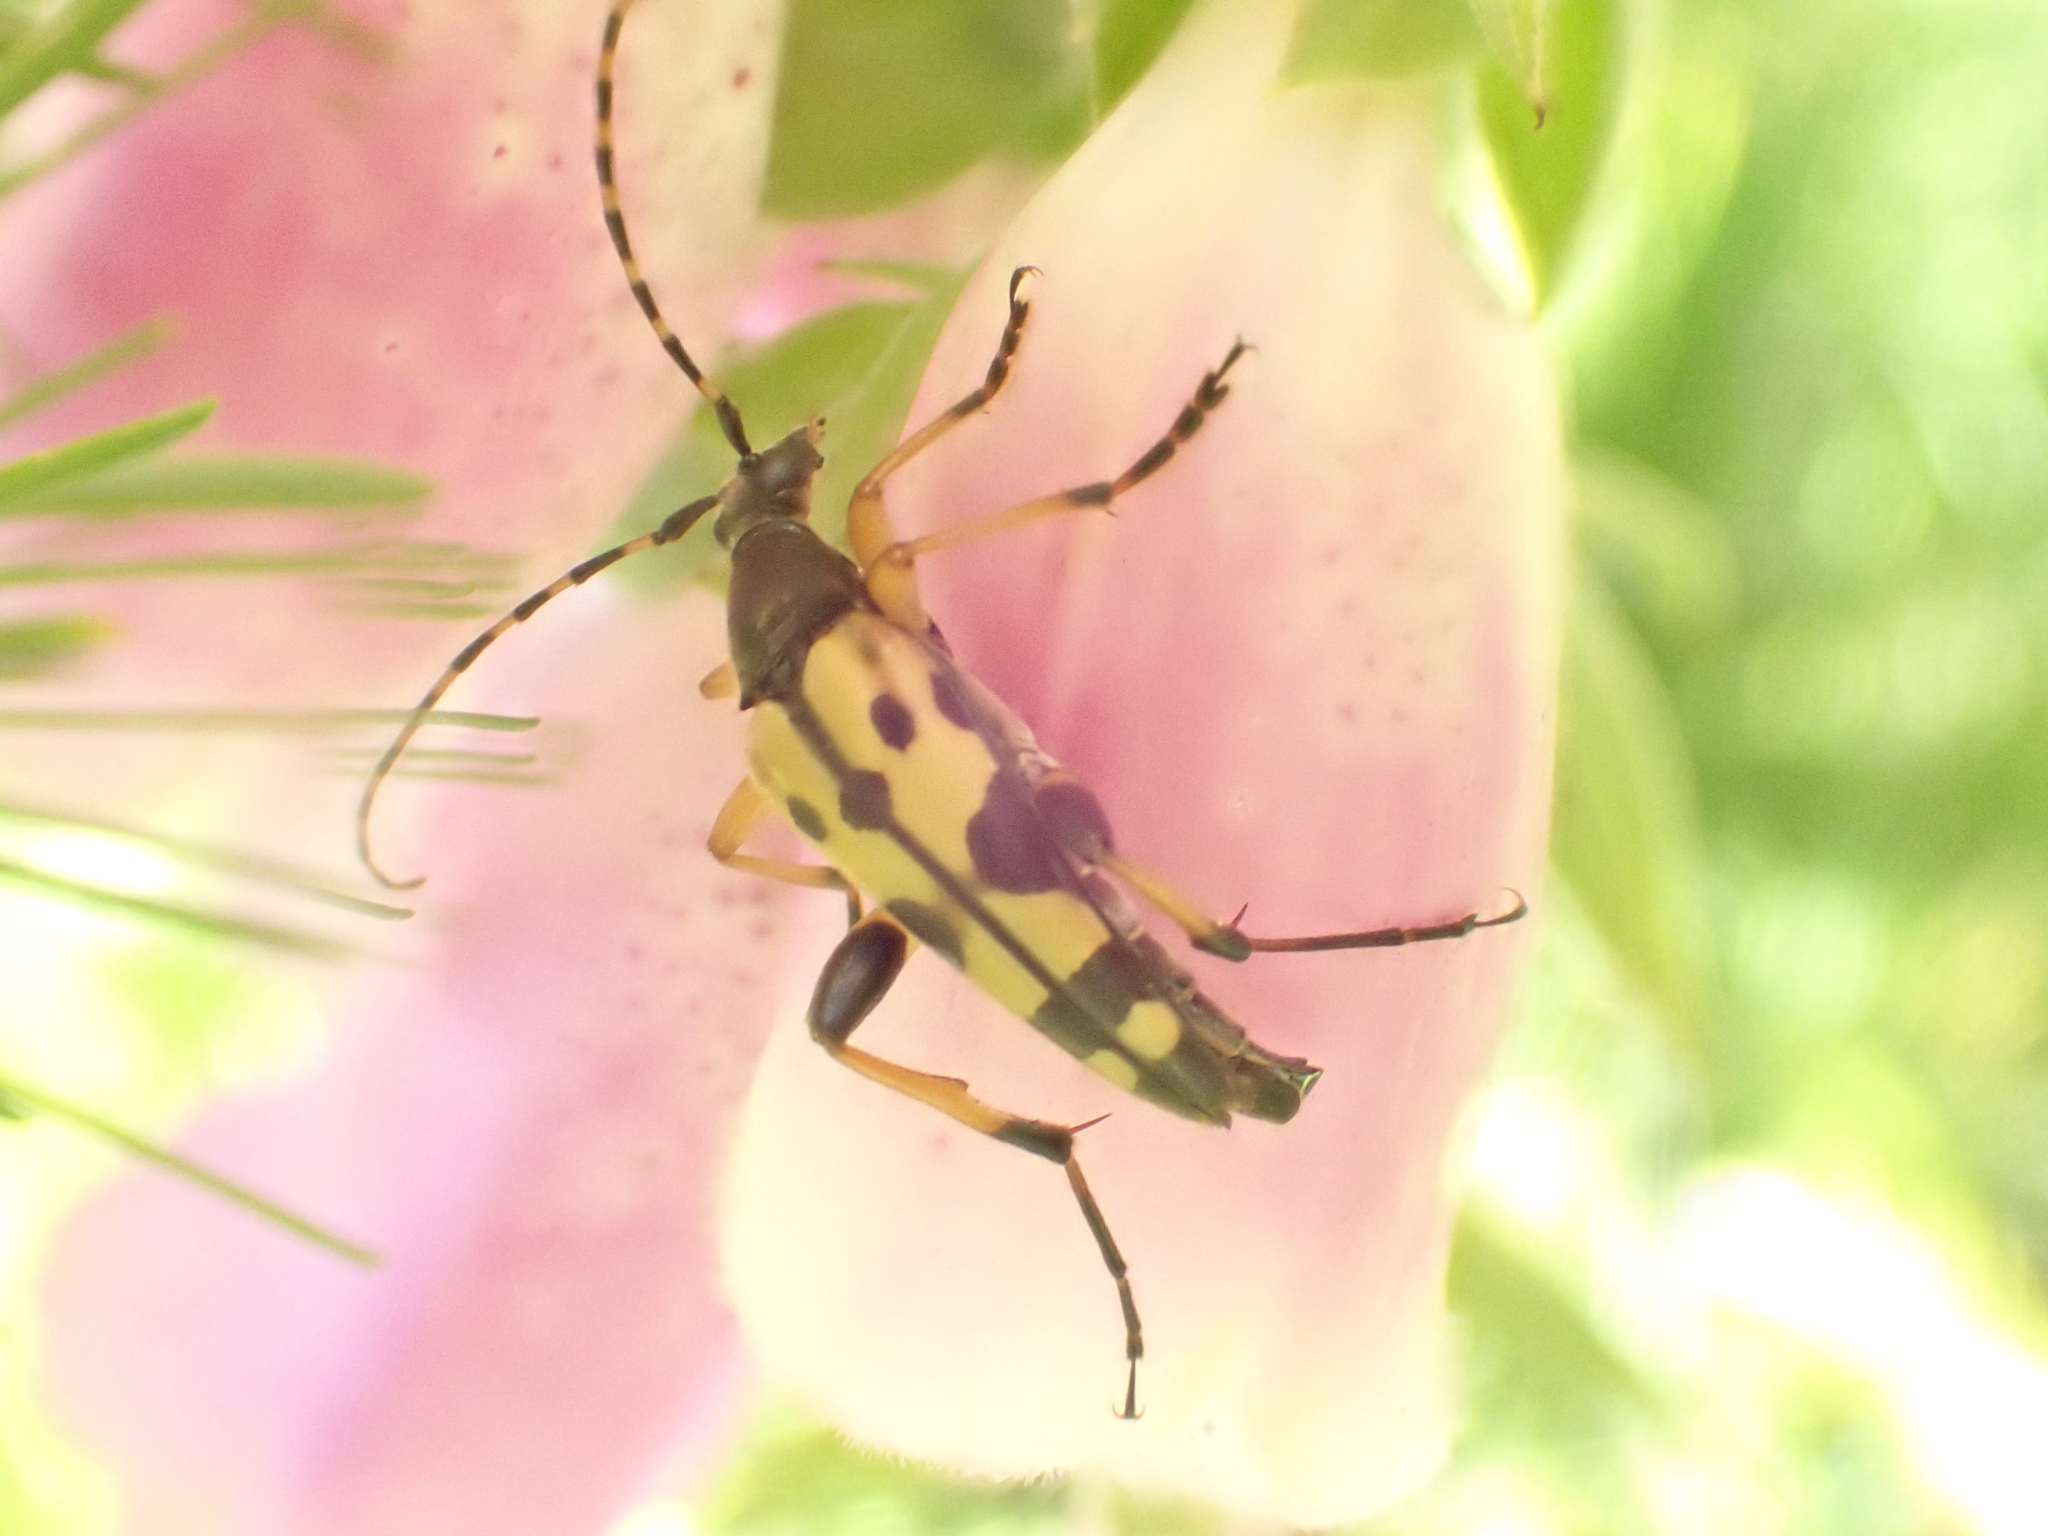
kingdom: Animalia
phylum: Arthropoda
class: Insecta
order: Coleoptera
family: Cerambycidae
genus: Rutpela
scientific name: Rutpela maculata
